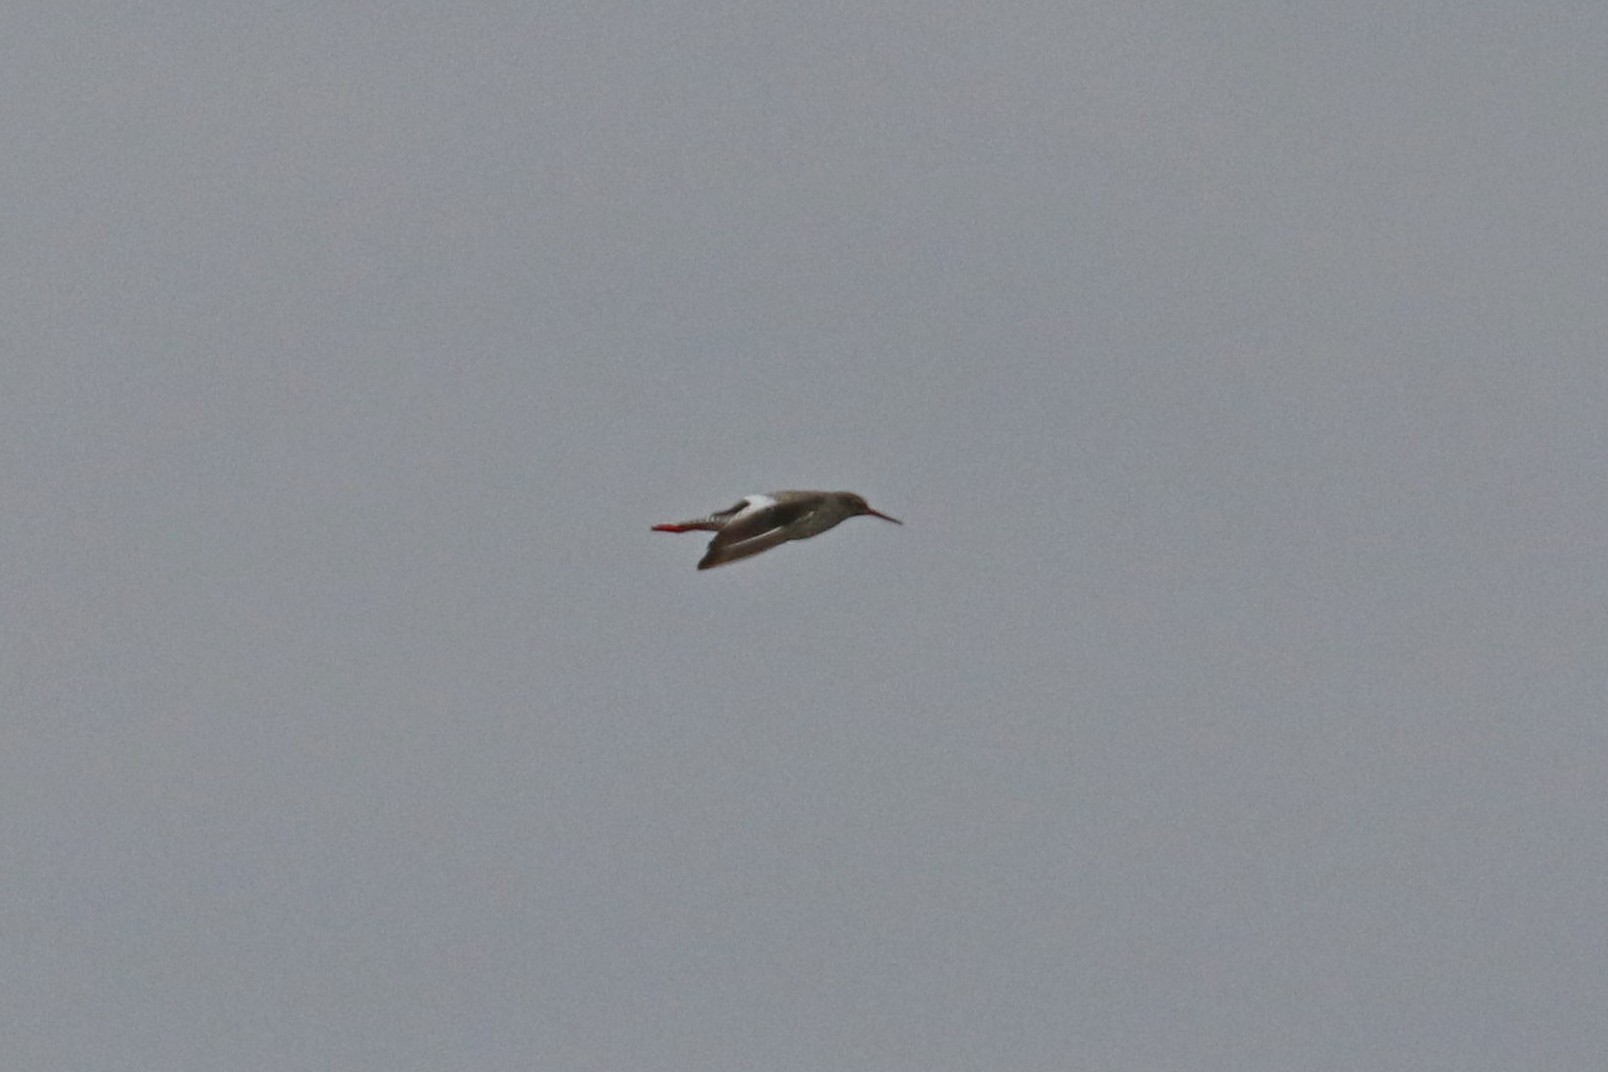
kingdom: Animalia
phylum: Chordata
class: Aves
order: Charadriiformes
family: Scolopacidae
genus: Tringa
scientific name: Tringa totanus
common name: Common redshank
